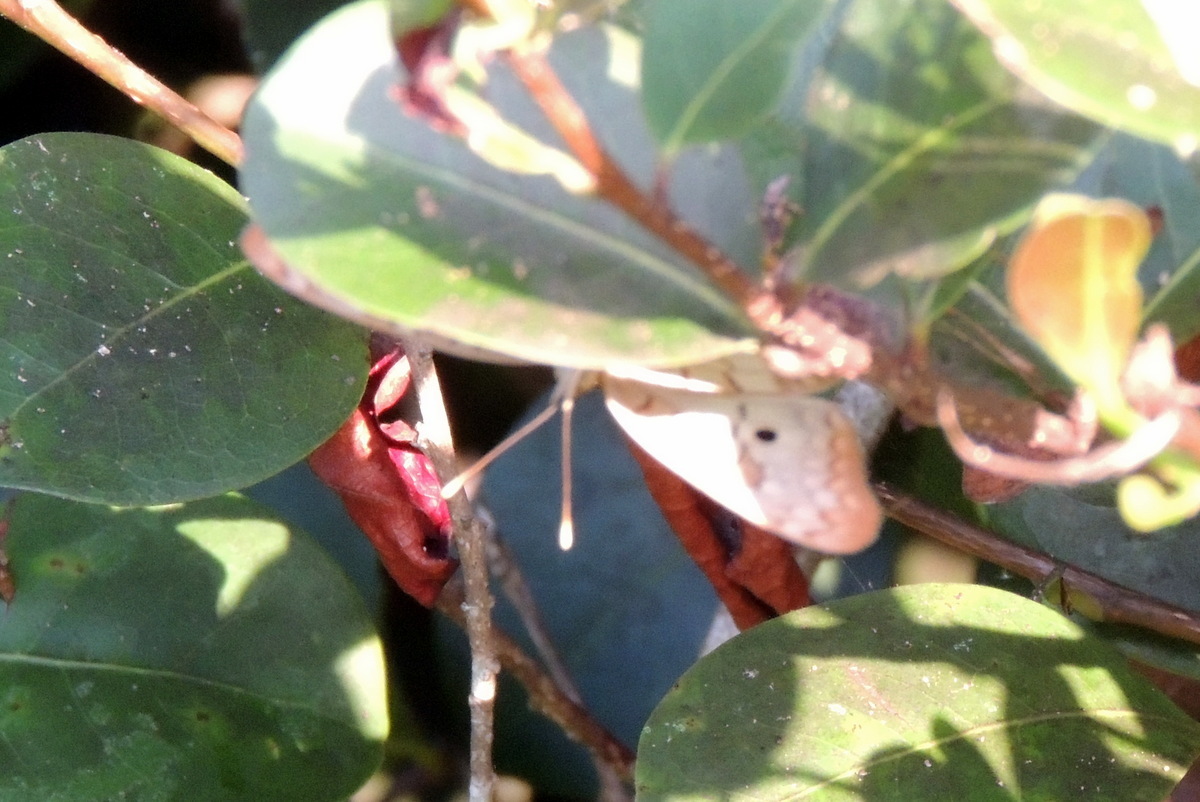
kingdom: Animalia
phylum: Arthropoda
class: Insecta
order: Lepidoptera
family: Nymphalidae
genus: Anartia
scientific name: Anartia jatrophae
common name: White peacock
